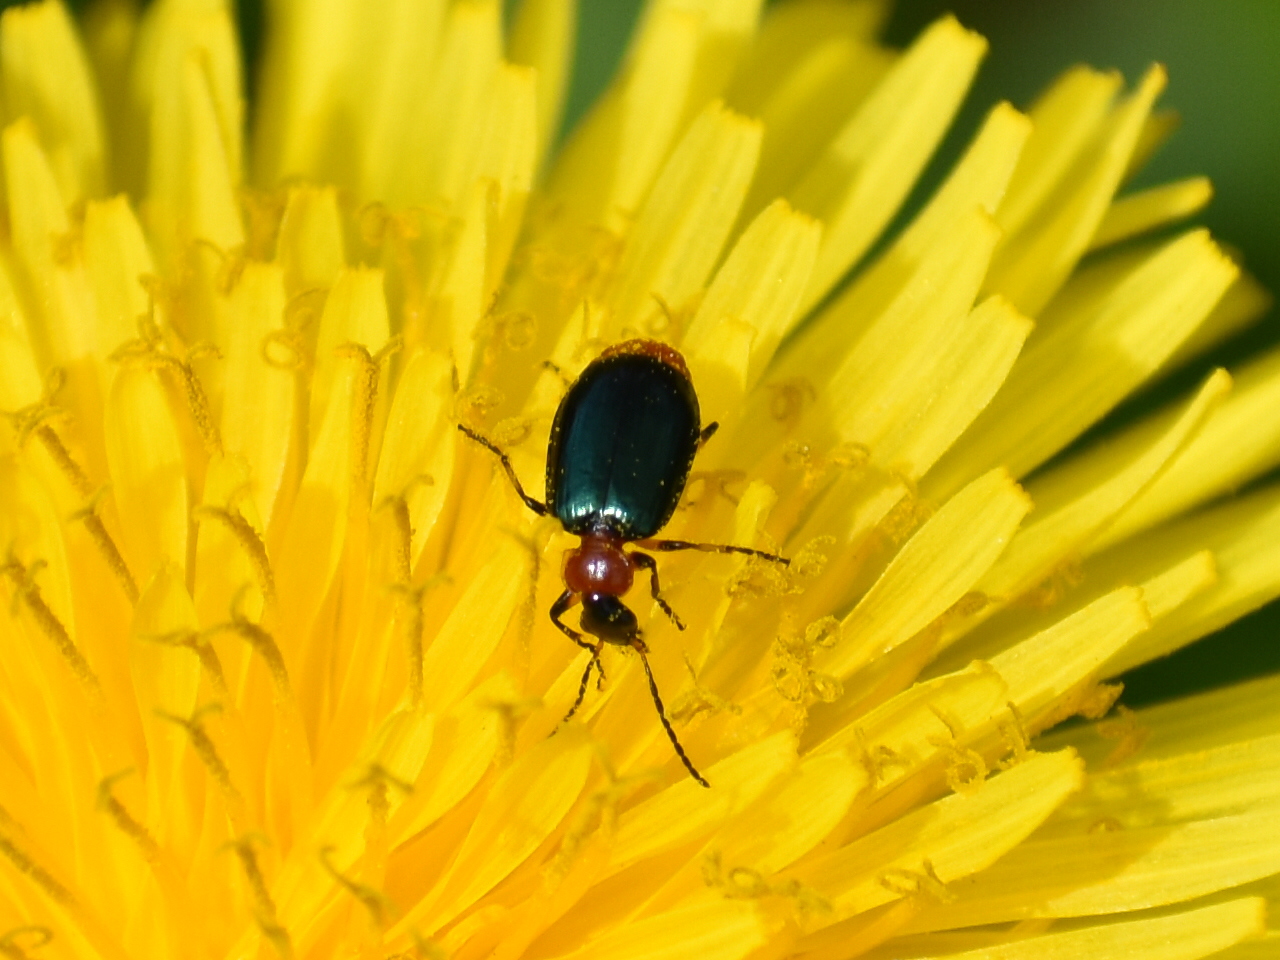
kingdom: Animalia
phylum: Arthropoda
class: Insecta
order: Coleoptera
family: Carabidae
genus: Lebia
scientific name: Lebia viridipennis
